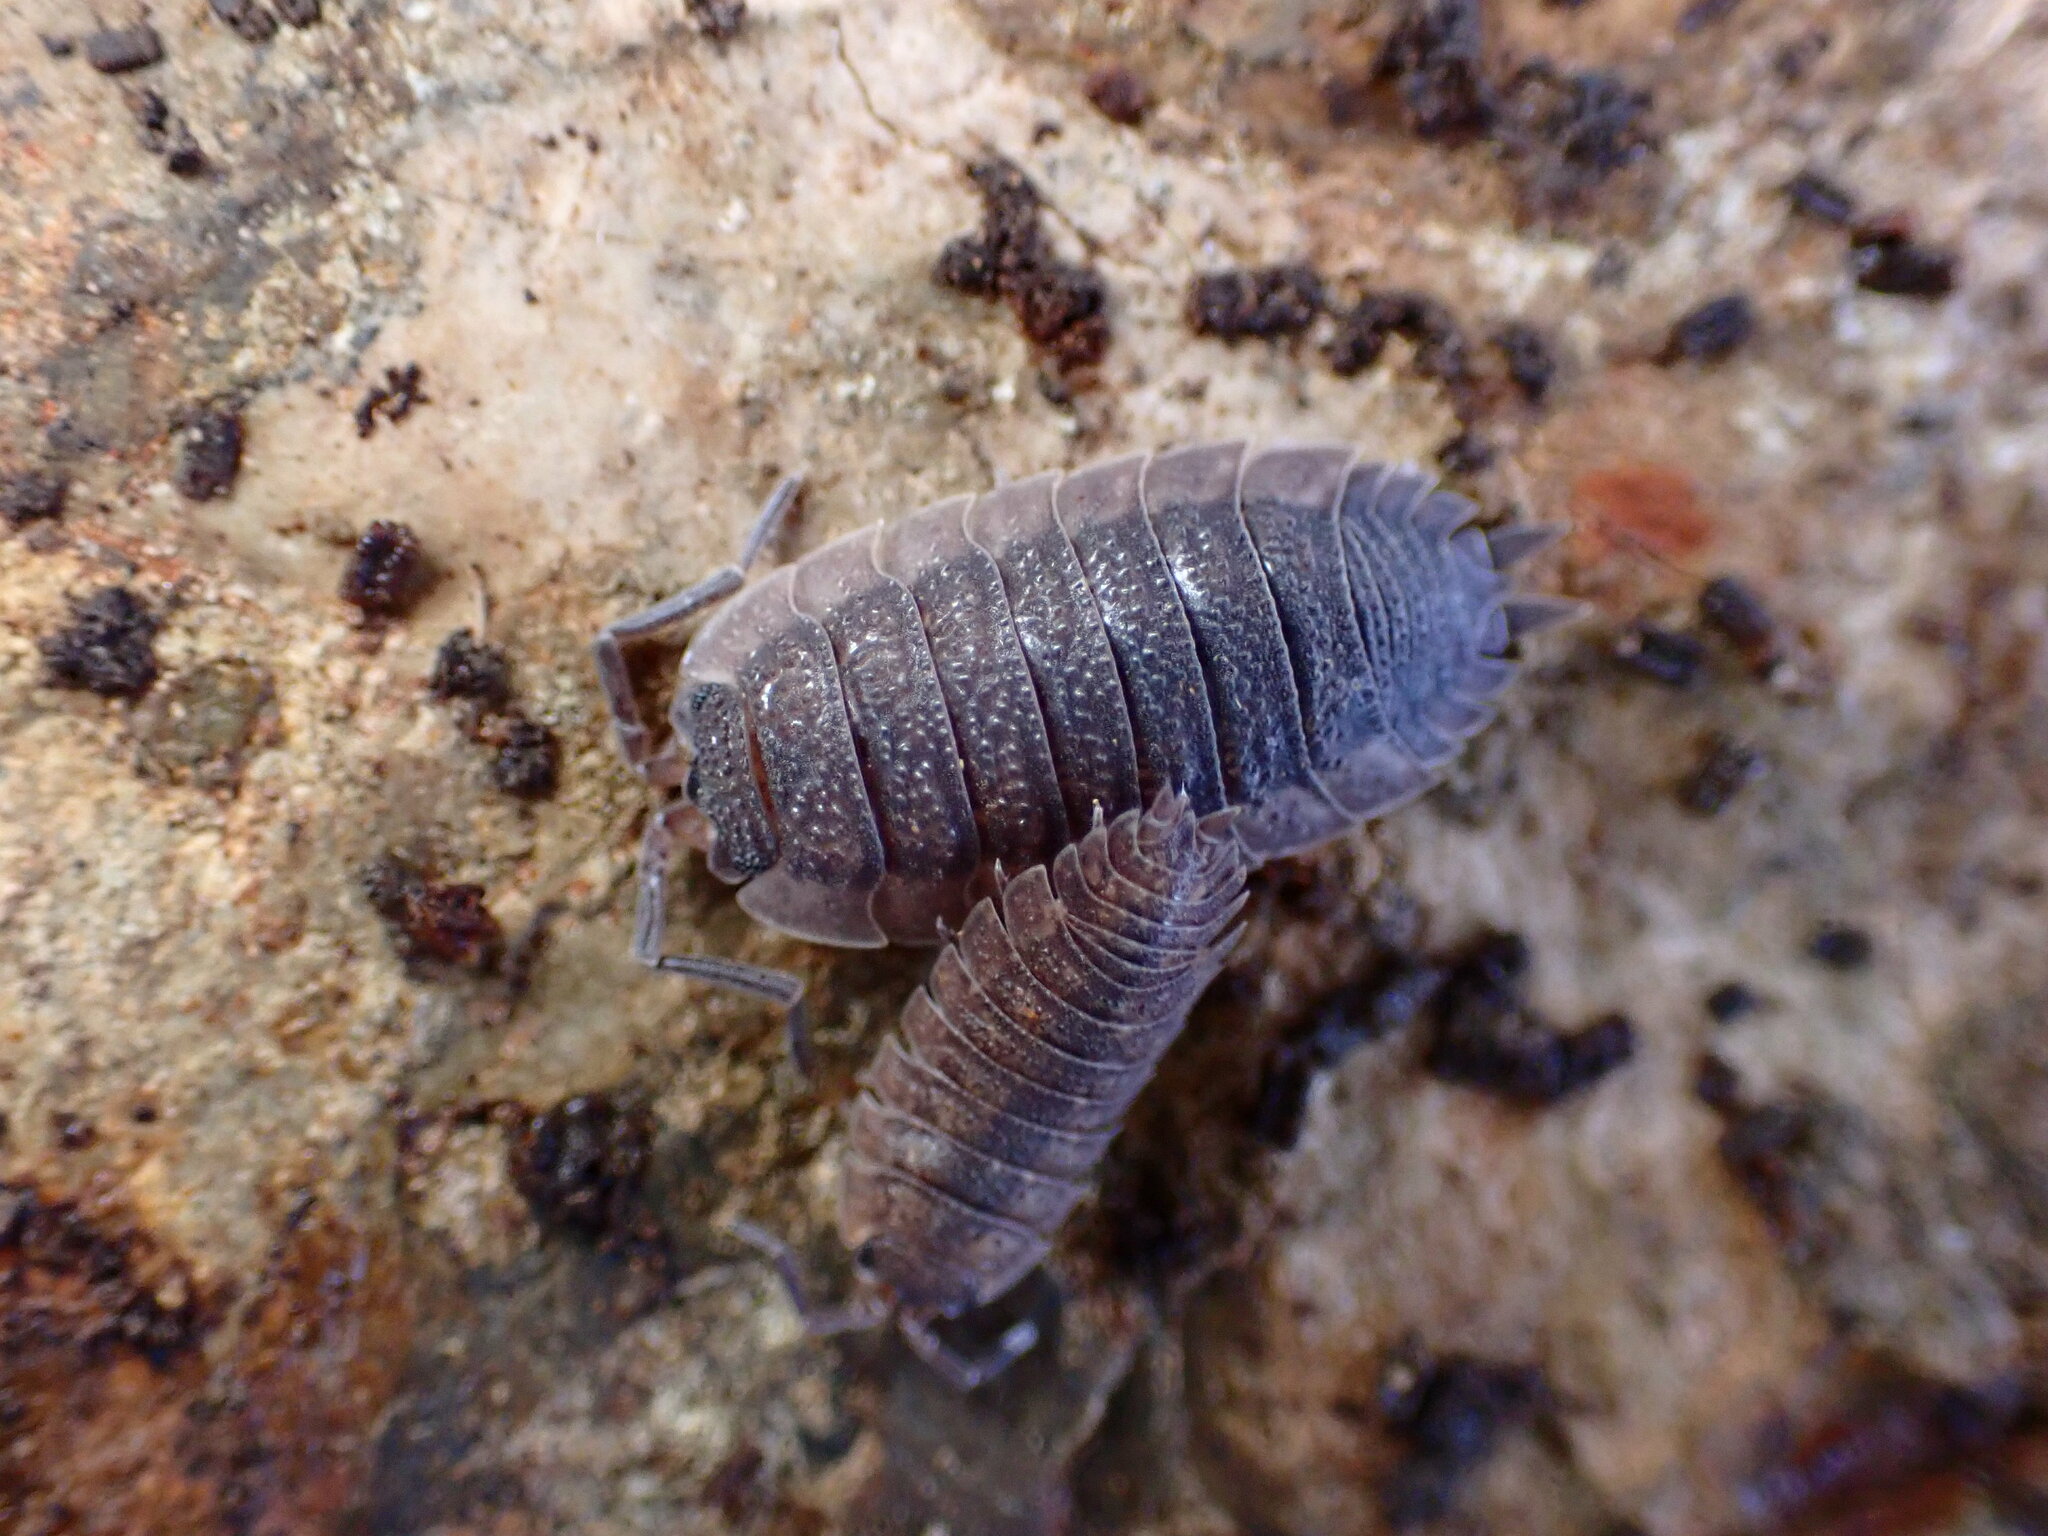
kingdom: Animalia
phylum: Arthropoda
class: Malacostraca
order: Isopoda
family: Porcellionidae
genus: Porcellio
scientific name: Porcellio scaber
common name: Common rough woodlouse
